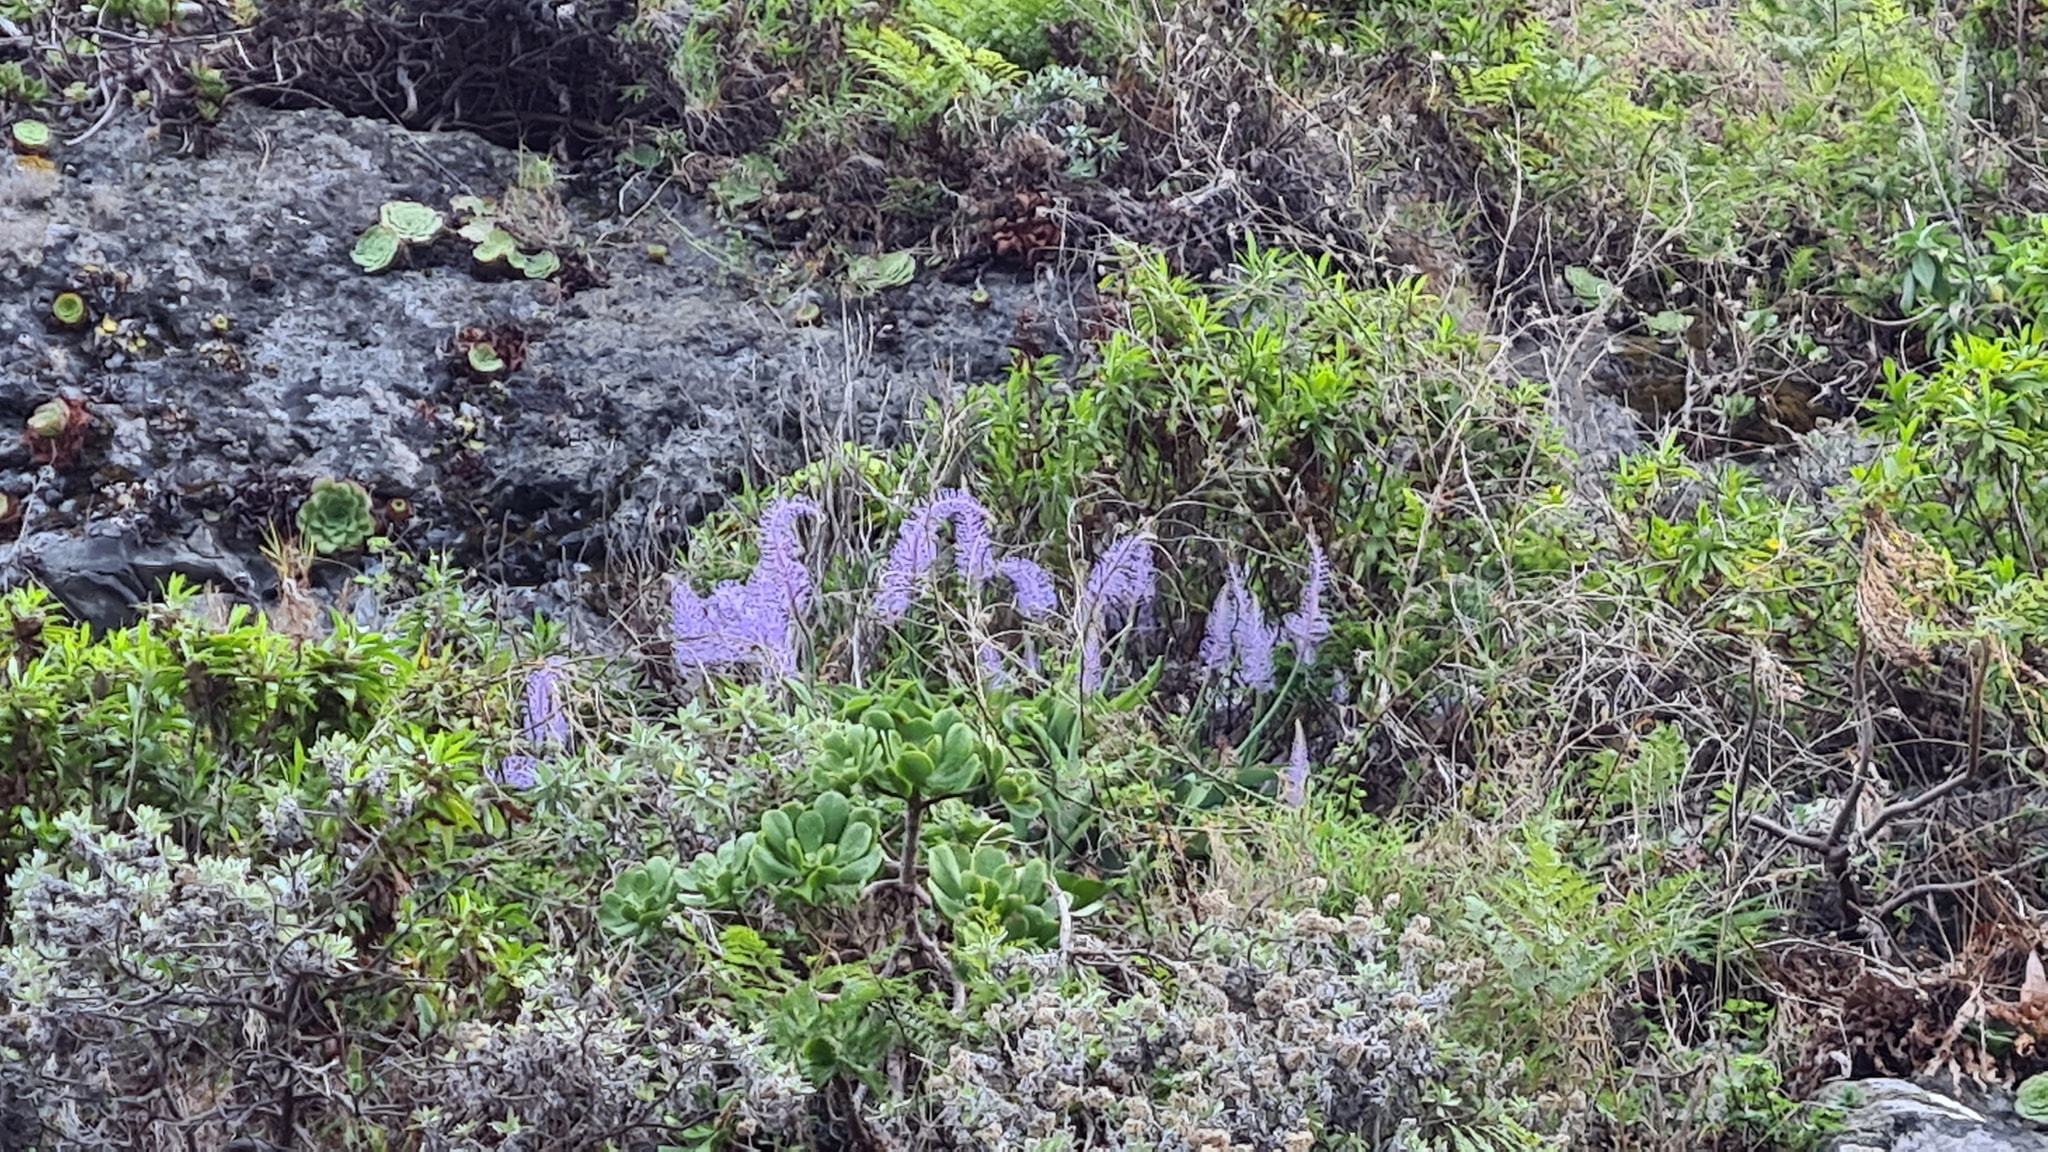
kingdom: Plantae
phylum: Tracheophyta
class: Liliopsida
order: Asparagales
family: Asparagaceae
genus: Scilla
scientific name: Scilla madeirensis
